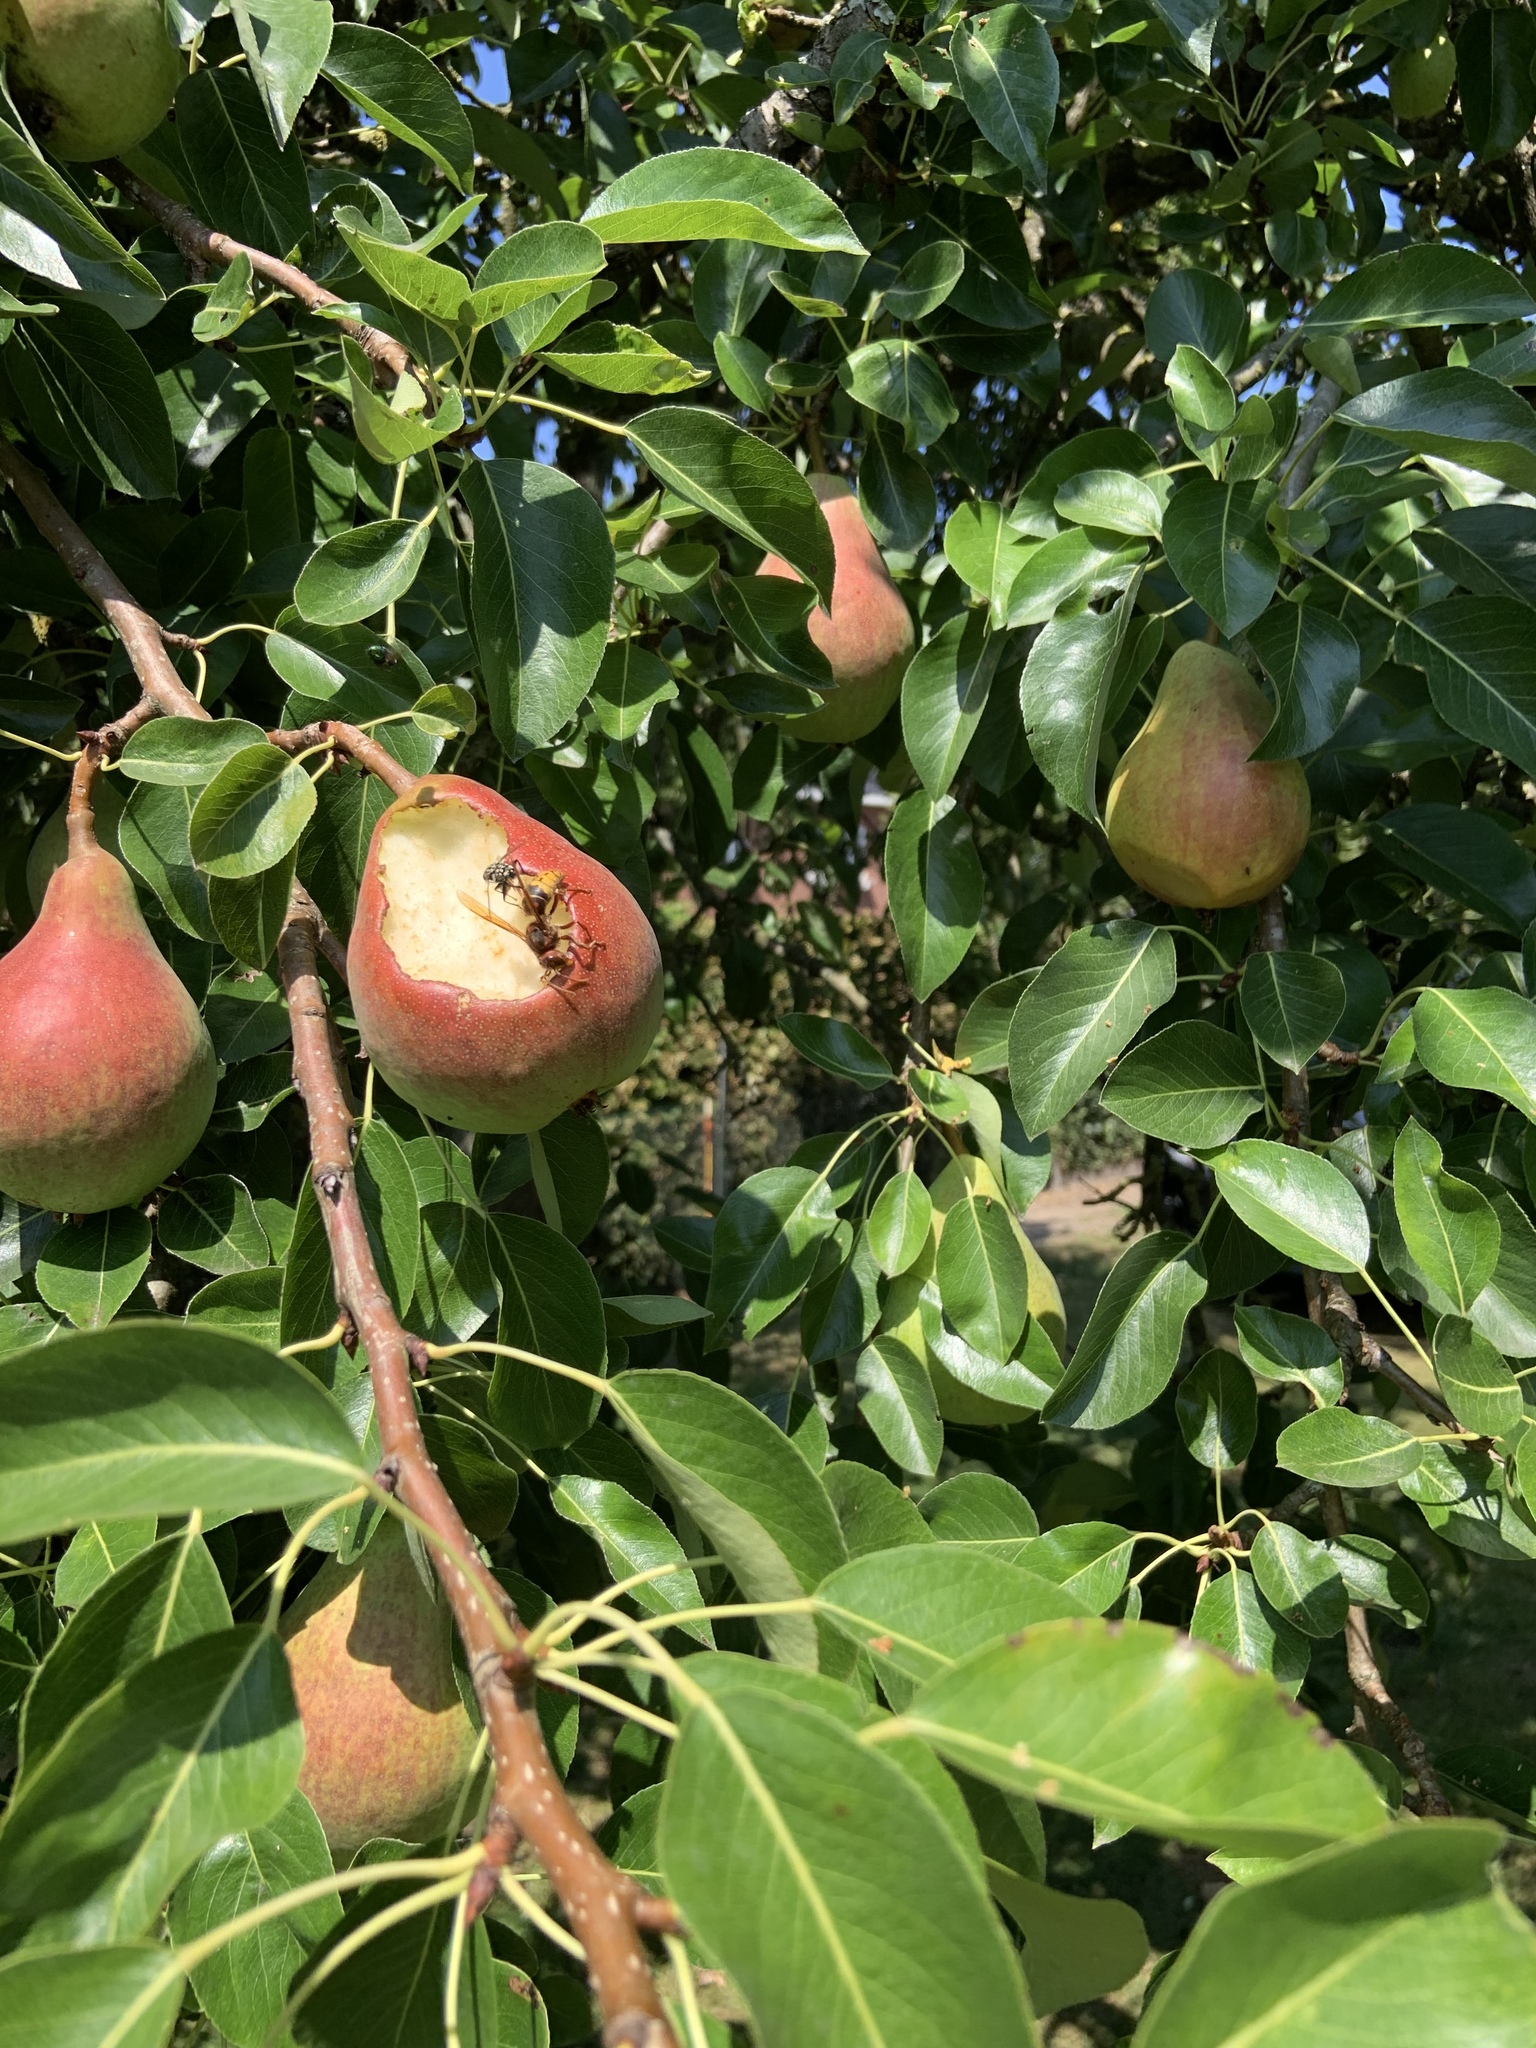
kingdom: Animalia
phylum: Arthropoda
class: Insecta
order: Hymenoptera
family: Vespidae
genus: Vespa
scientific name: Vespa crabro
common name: Hornet
